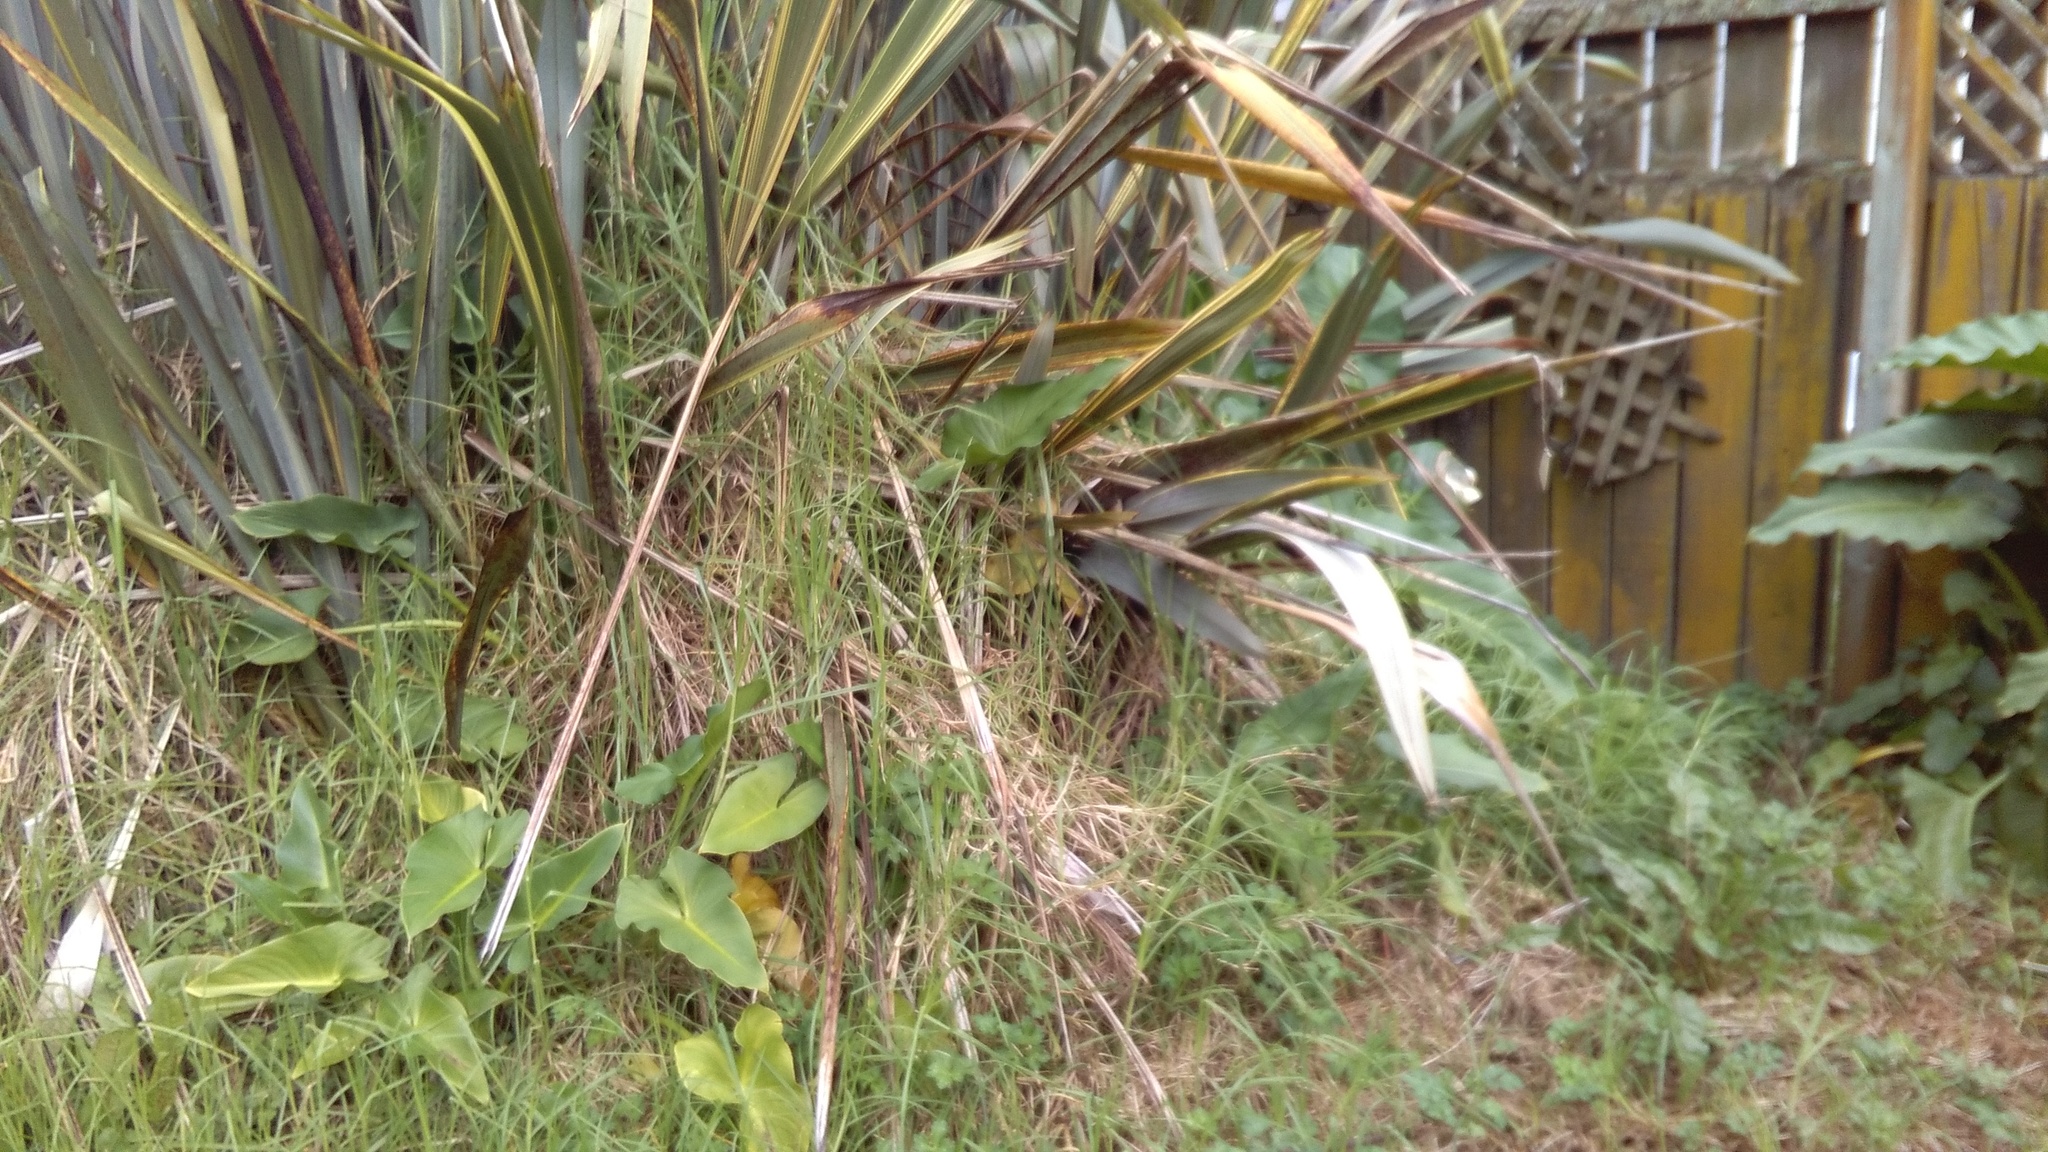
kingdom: Plantae
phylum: Tracheophyta
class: Liliopsida
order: Poales
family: Poaceae
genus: Cenchrus
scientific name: Cenchrus clandestinus
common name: Kikuyugrass
